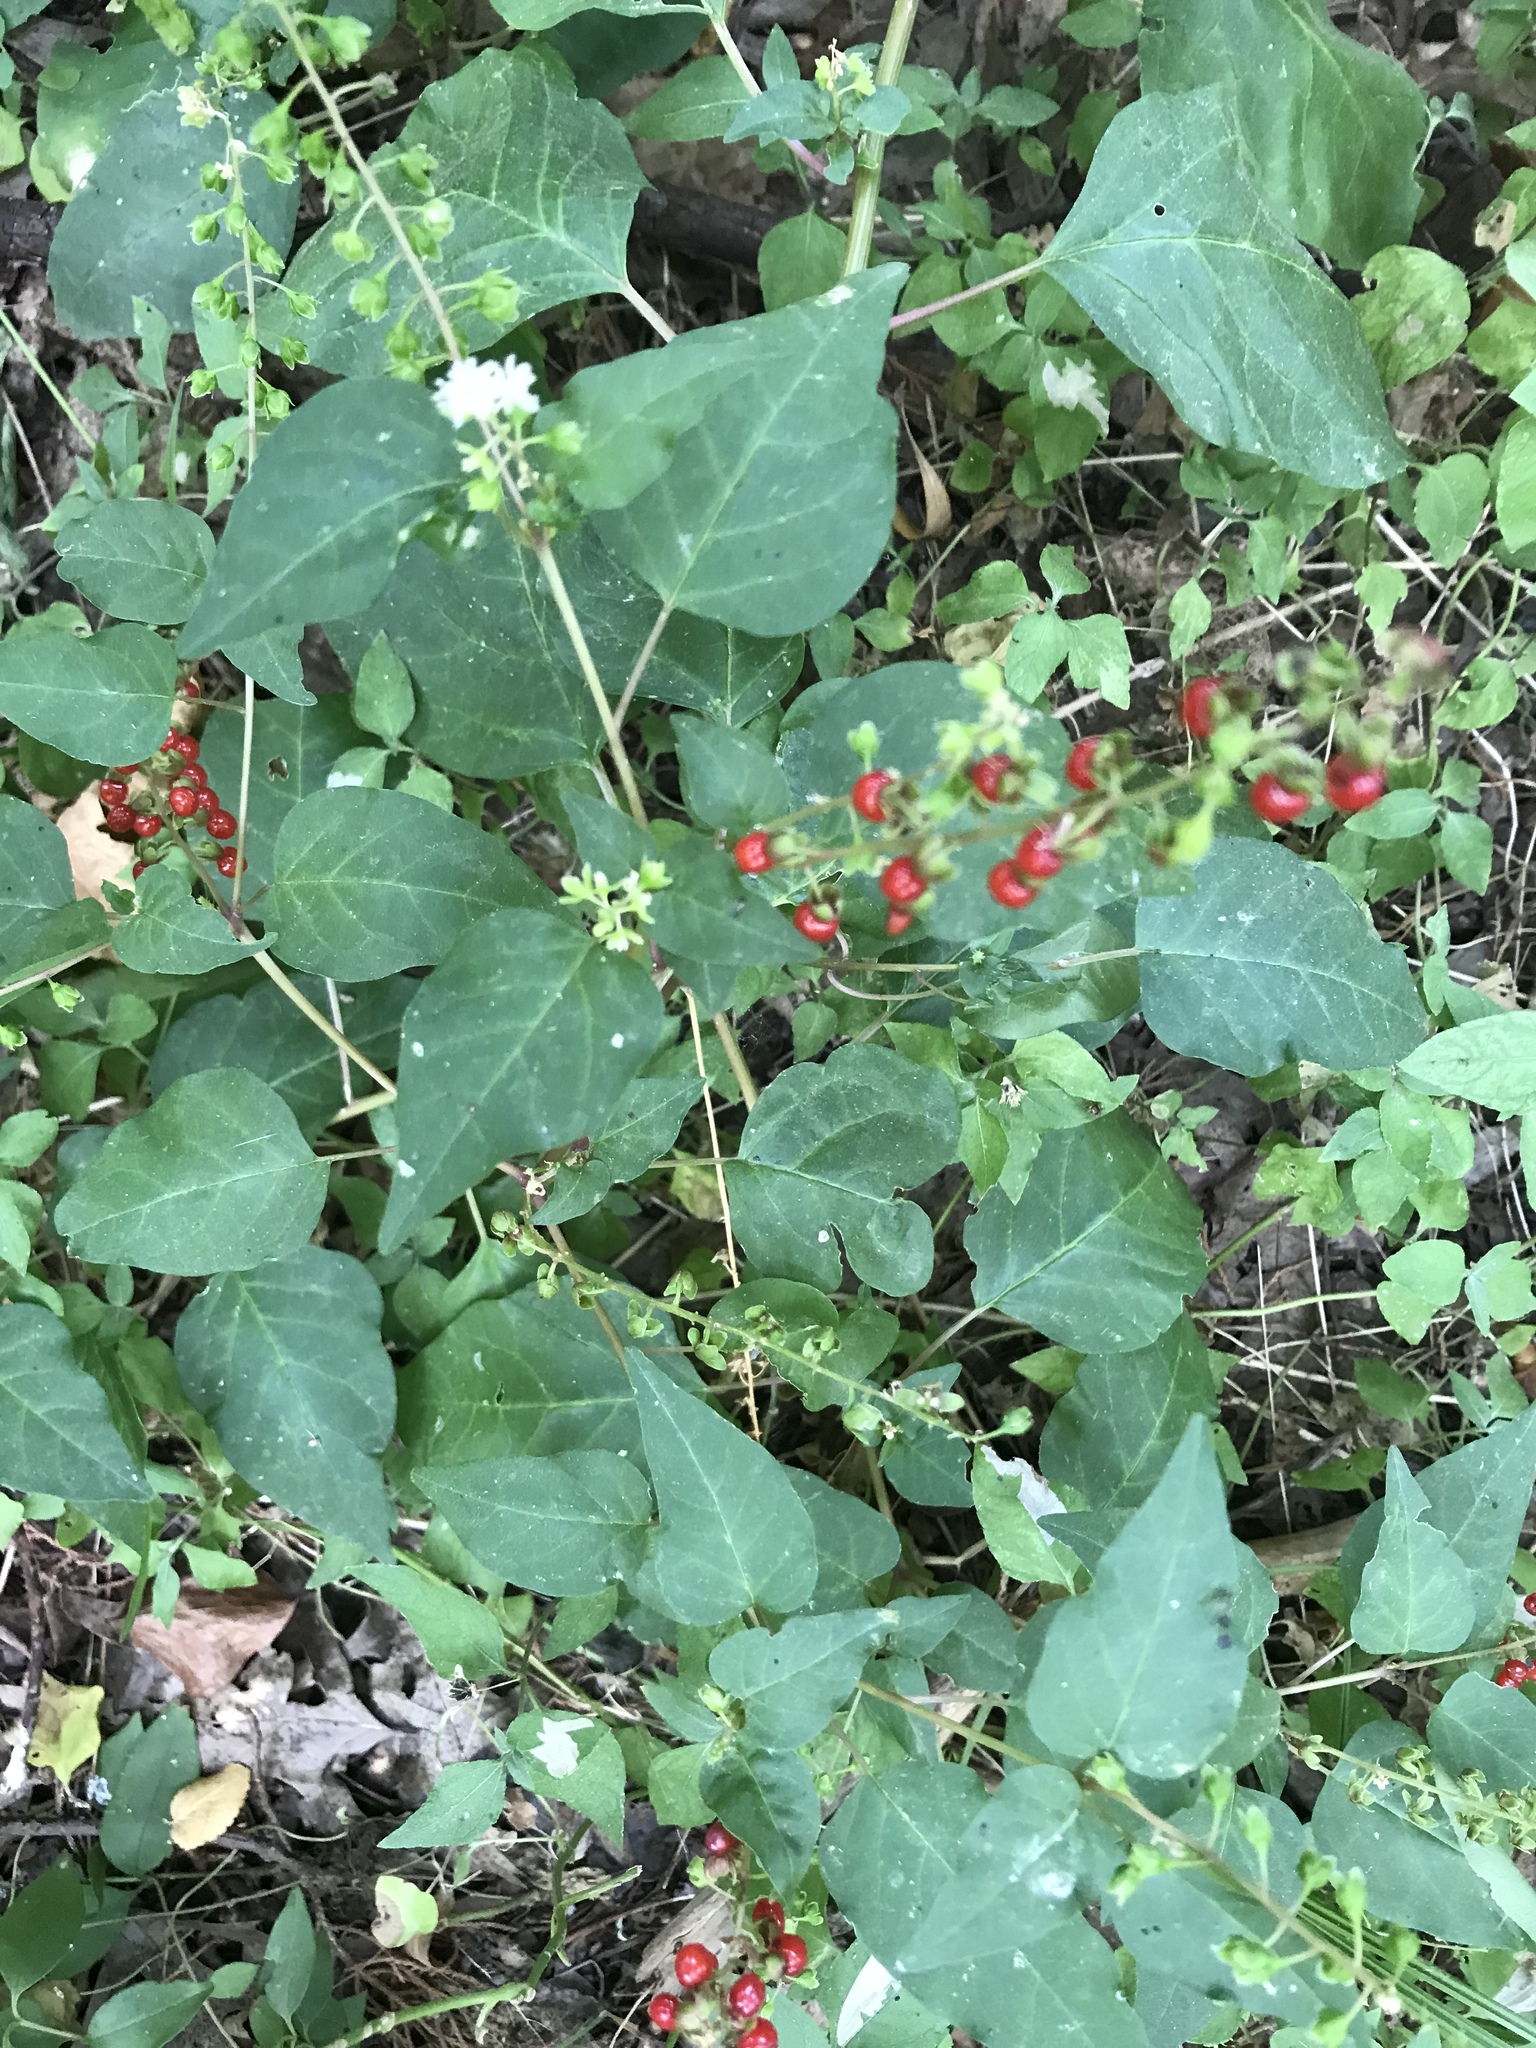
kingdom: Plantae
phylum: Tracheophyta
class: Magnoliopsida
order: Caryophyllales
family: Phytolaccaceae
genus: Rivina
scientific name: Rivina humilis
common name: Rougeplant
